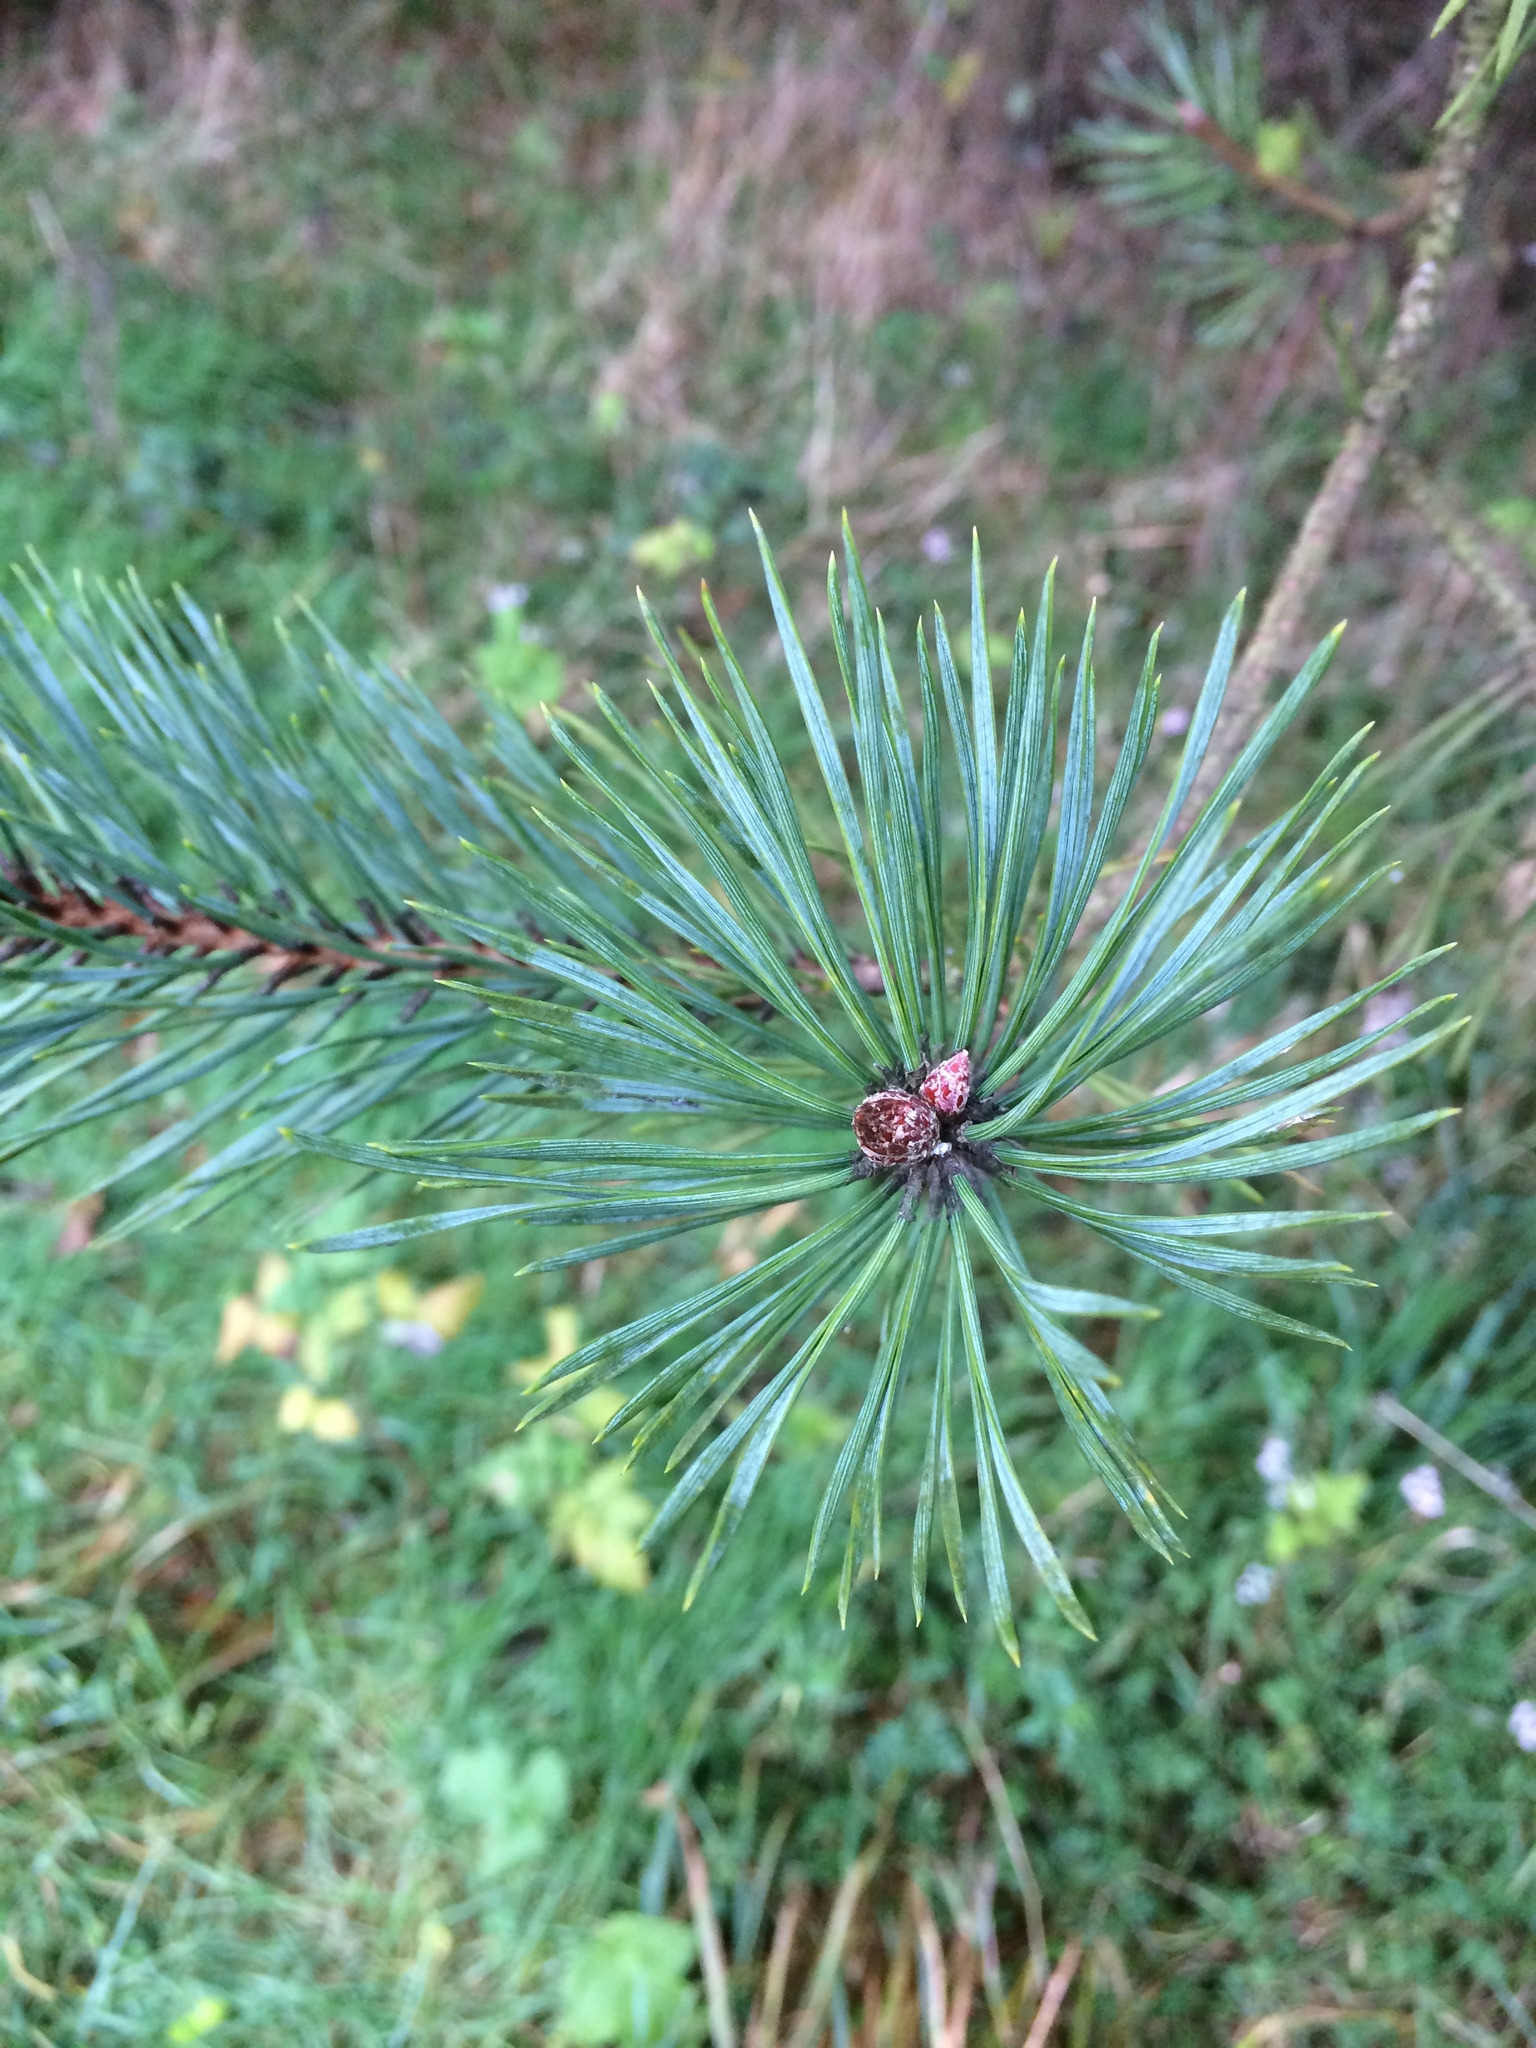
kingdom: Plantae
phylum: Tracheophyta
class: Pinopsida
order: Pinales
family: Pinaceae
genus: Pinus
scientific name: Pinus sylvestris
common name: Scots pine
